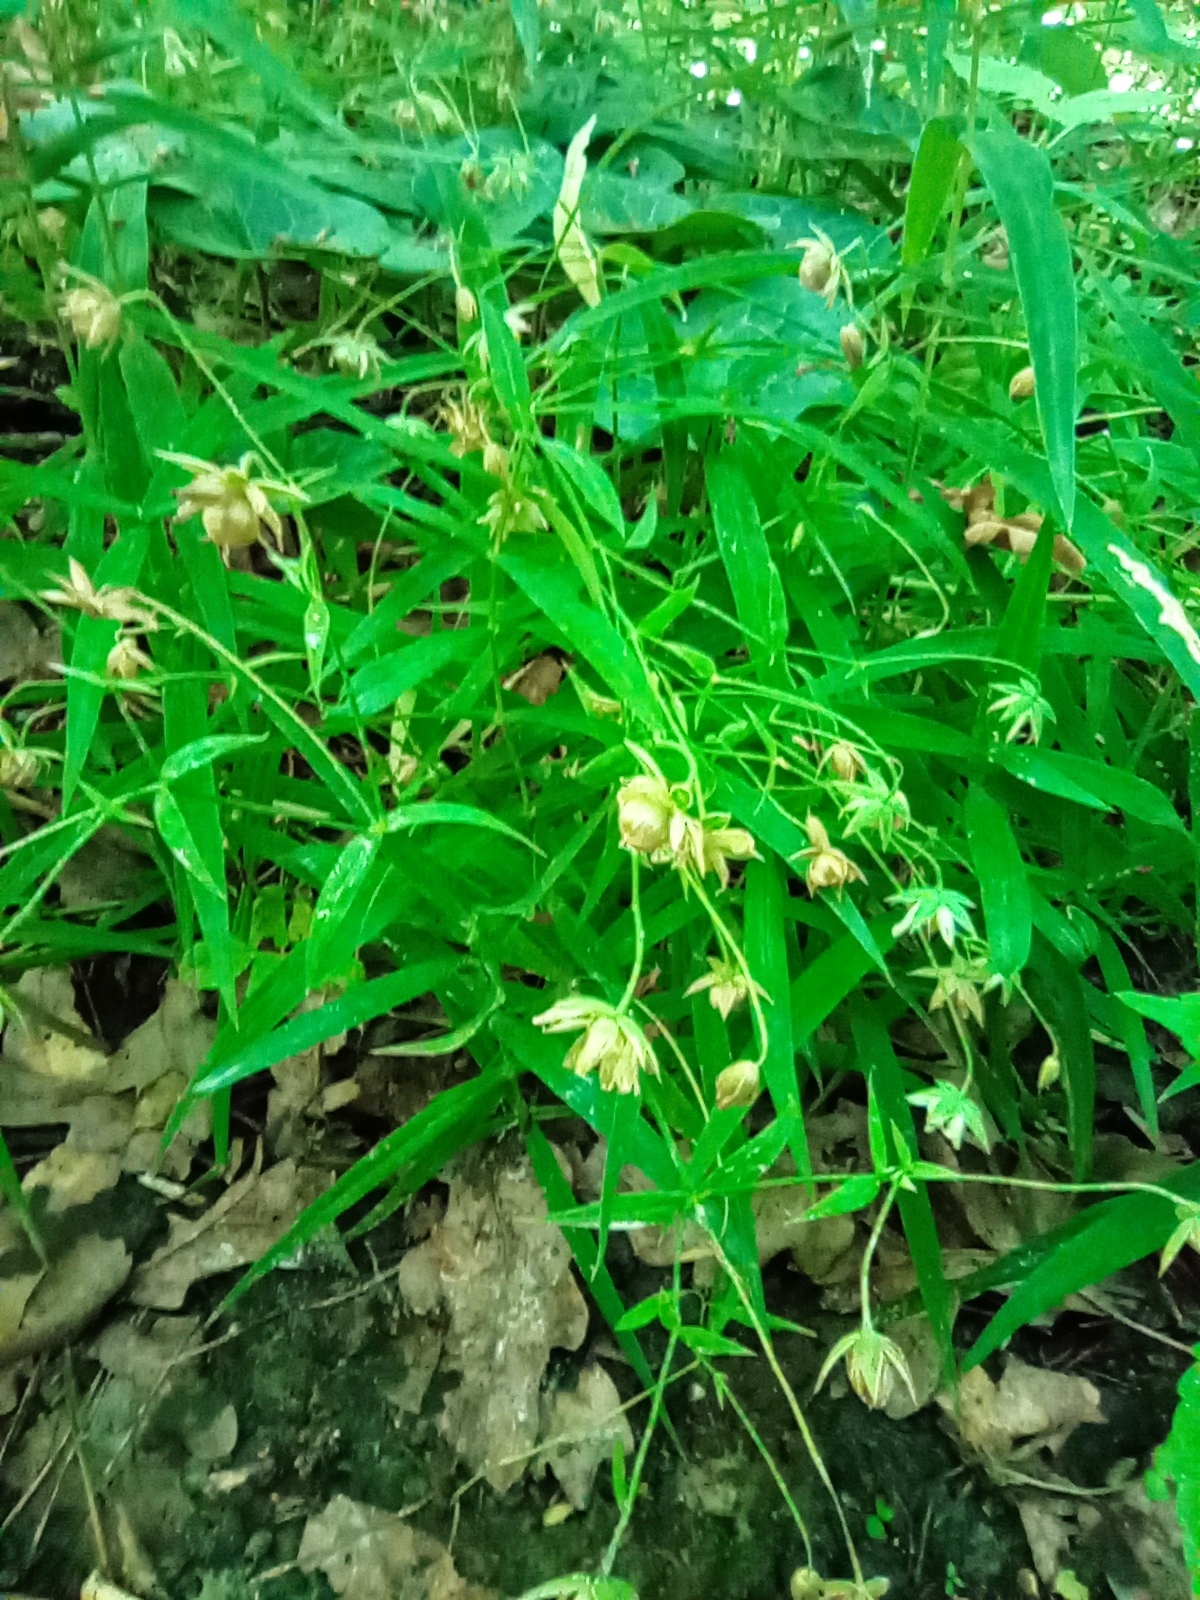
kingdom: Plantae
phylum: Tracheophyta
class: Magnoliopsida
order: Caryophyllales
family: Caryophyllaceae
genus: Rabelera
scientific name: Rabelera holostea
